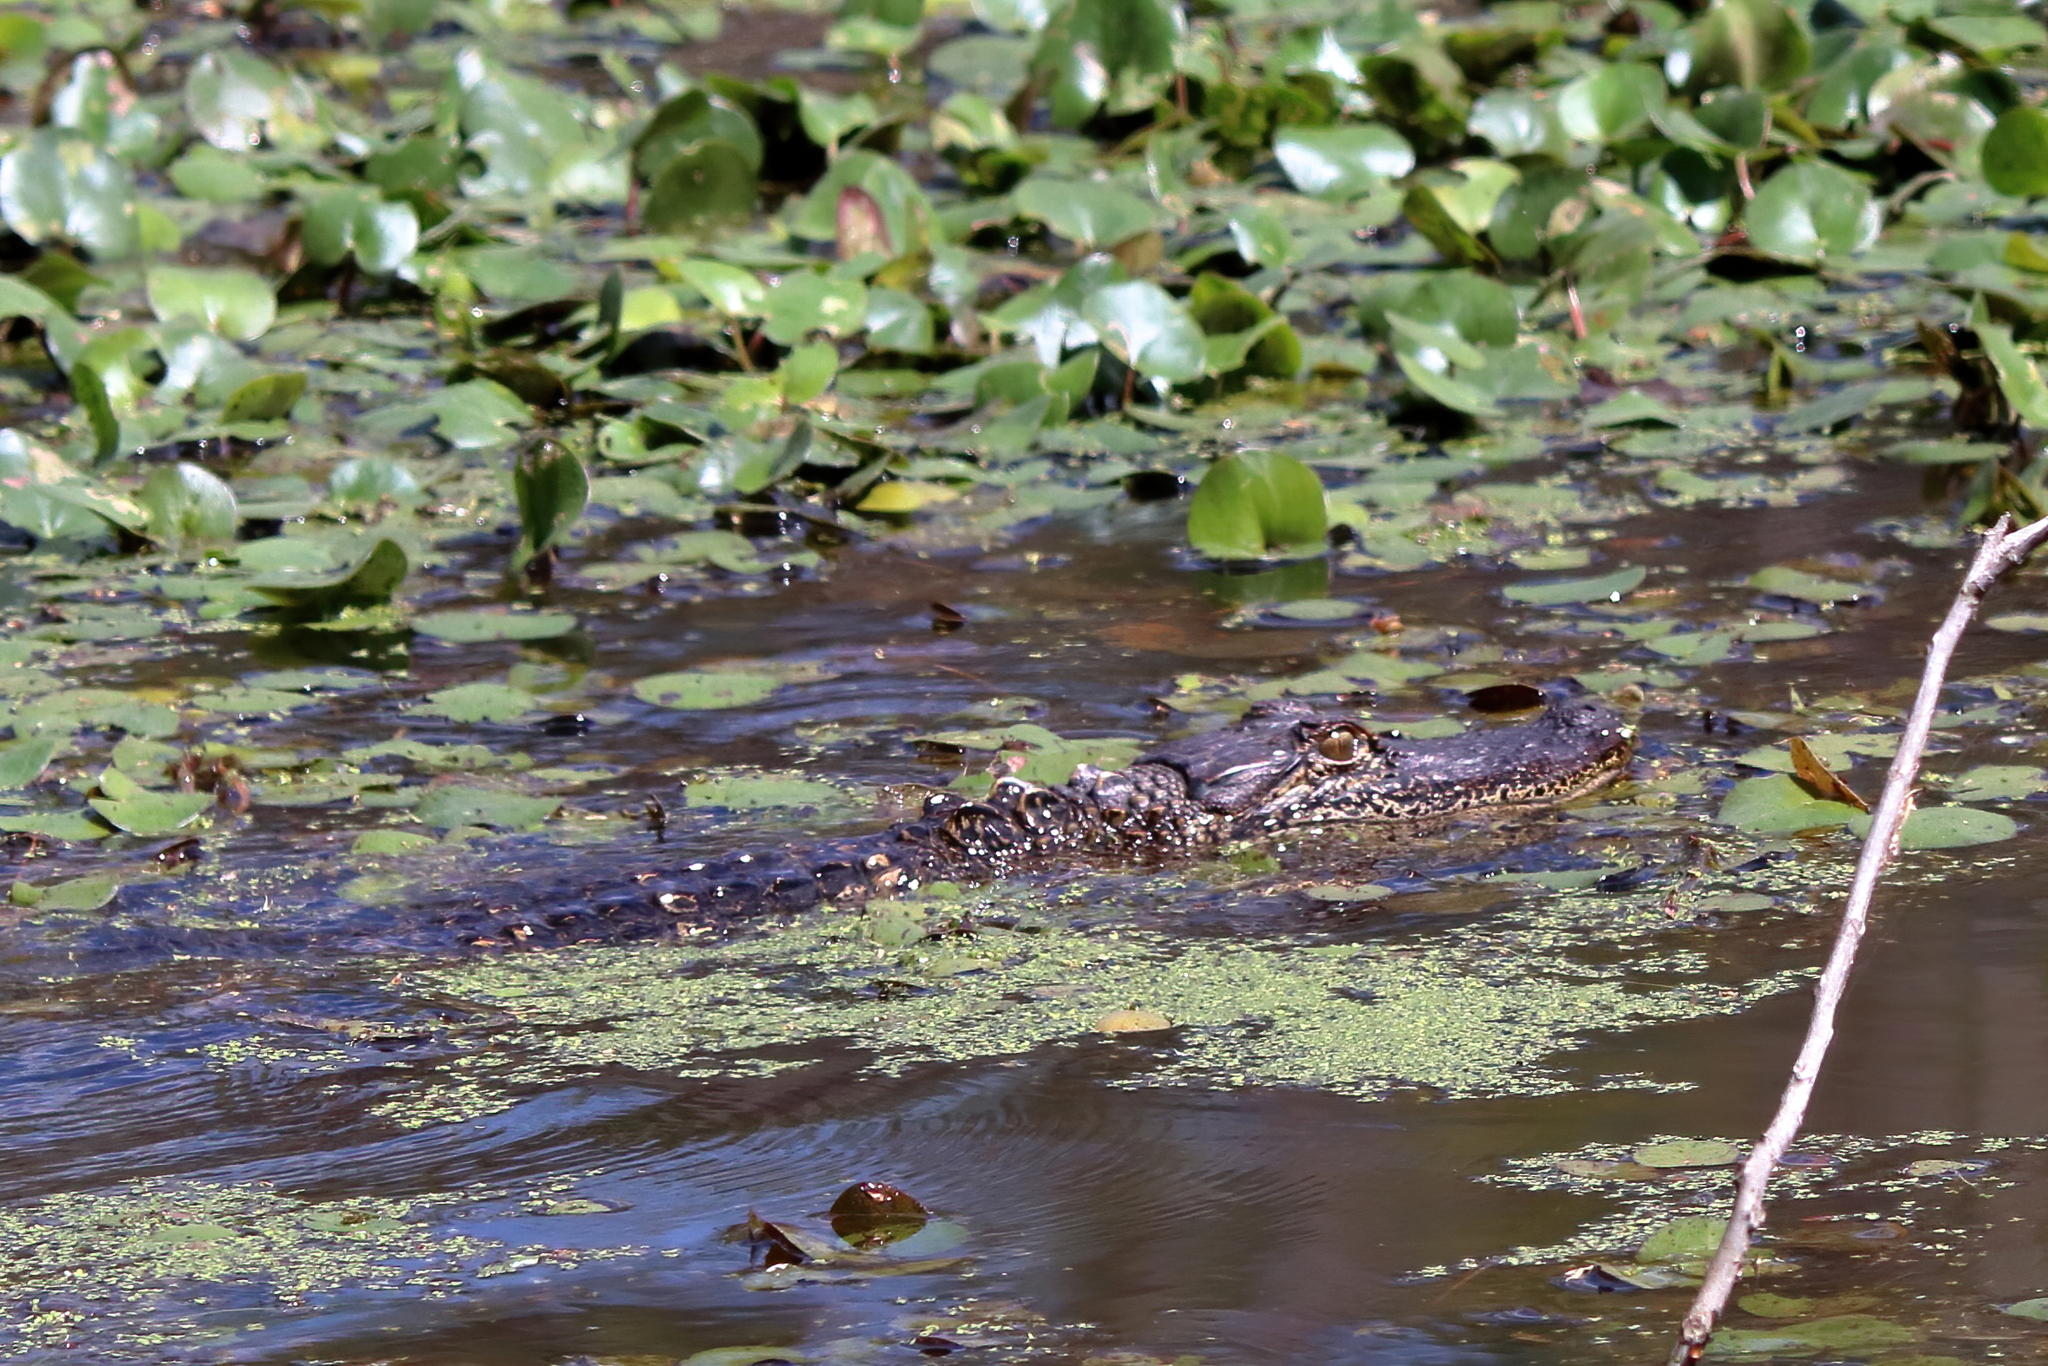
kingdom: Animalia
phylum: Chordata
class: Crocodylia
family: Alligatoridae
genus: Alligator
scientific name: Alligator mississippiensis
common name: American alligator
